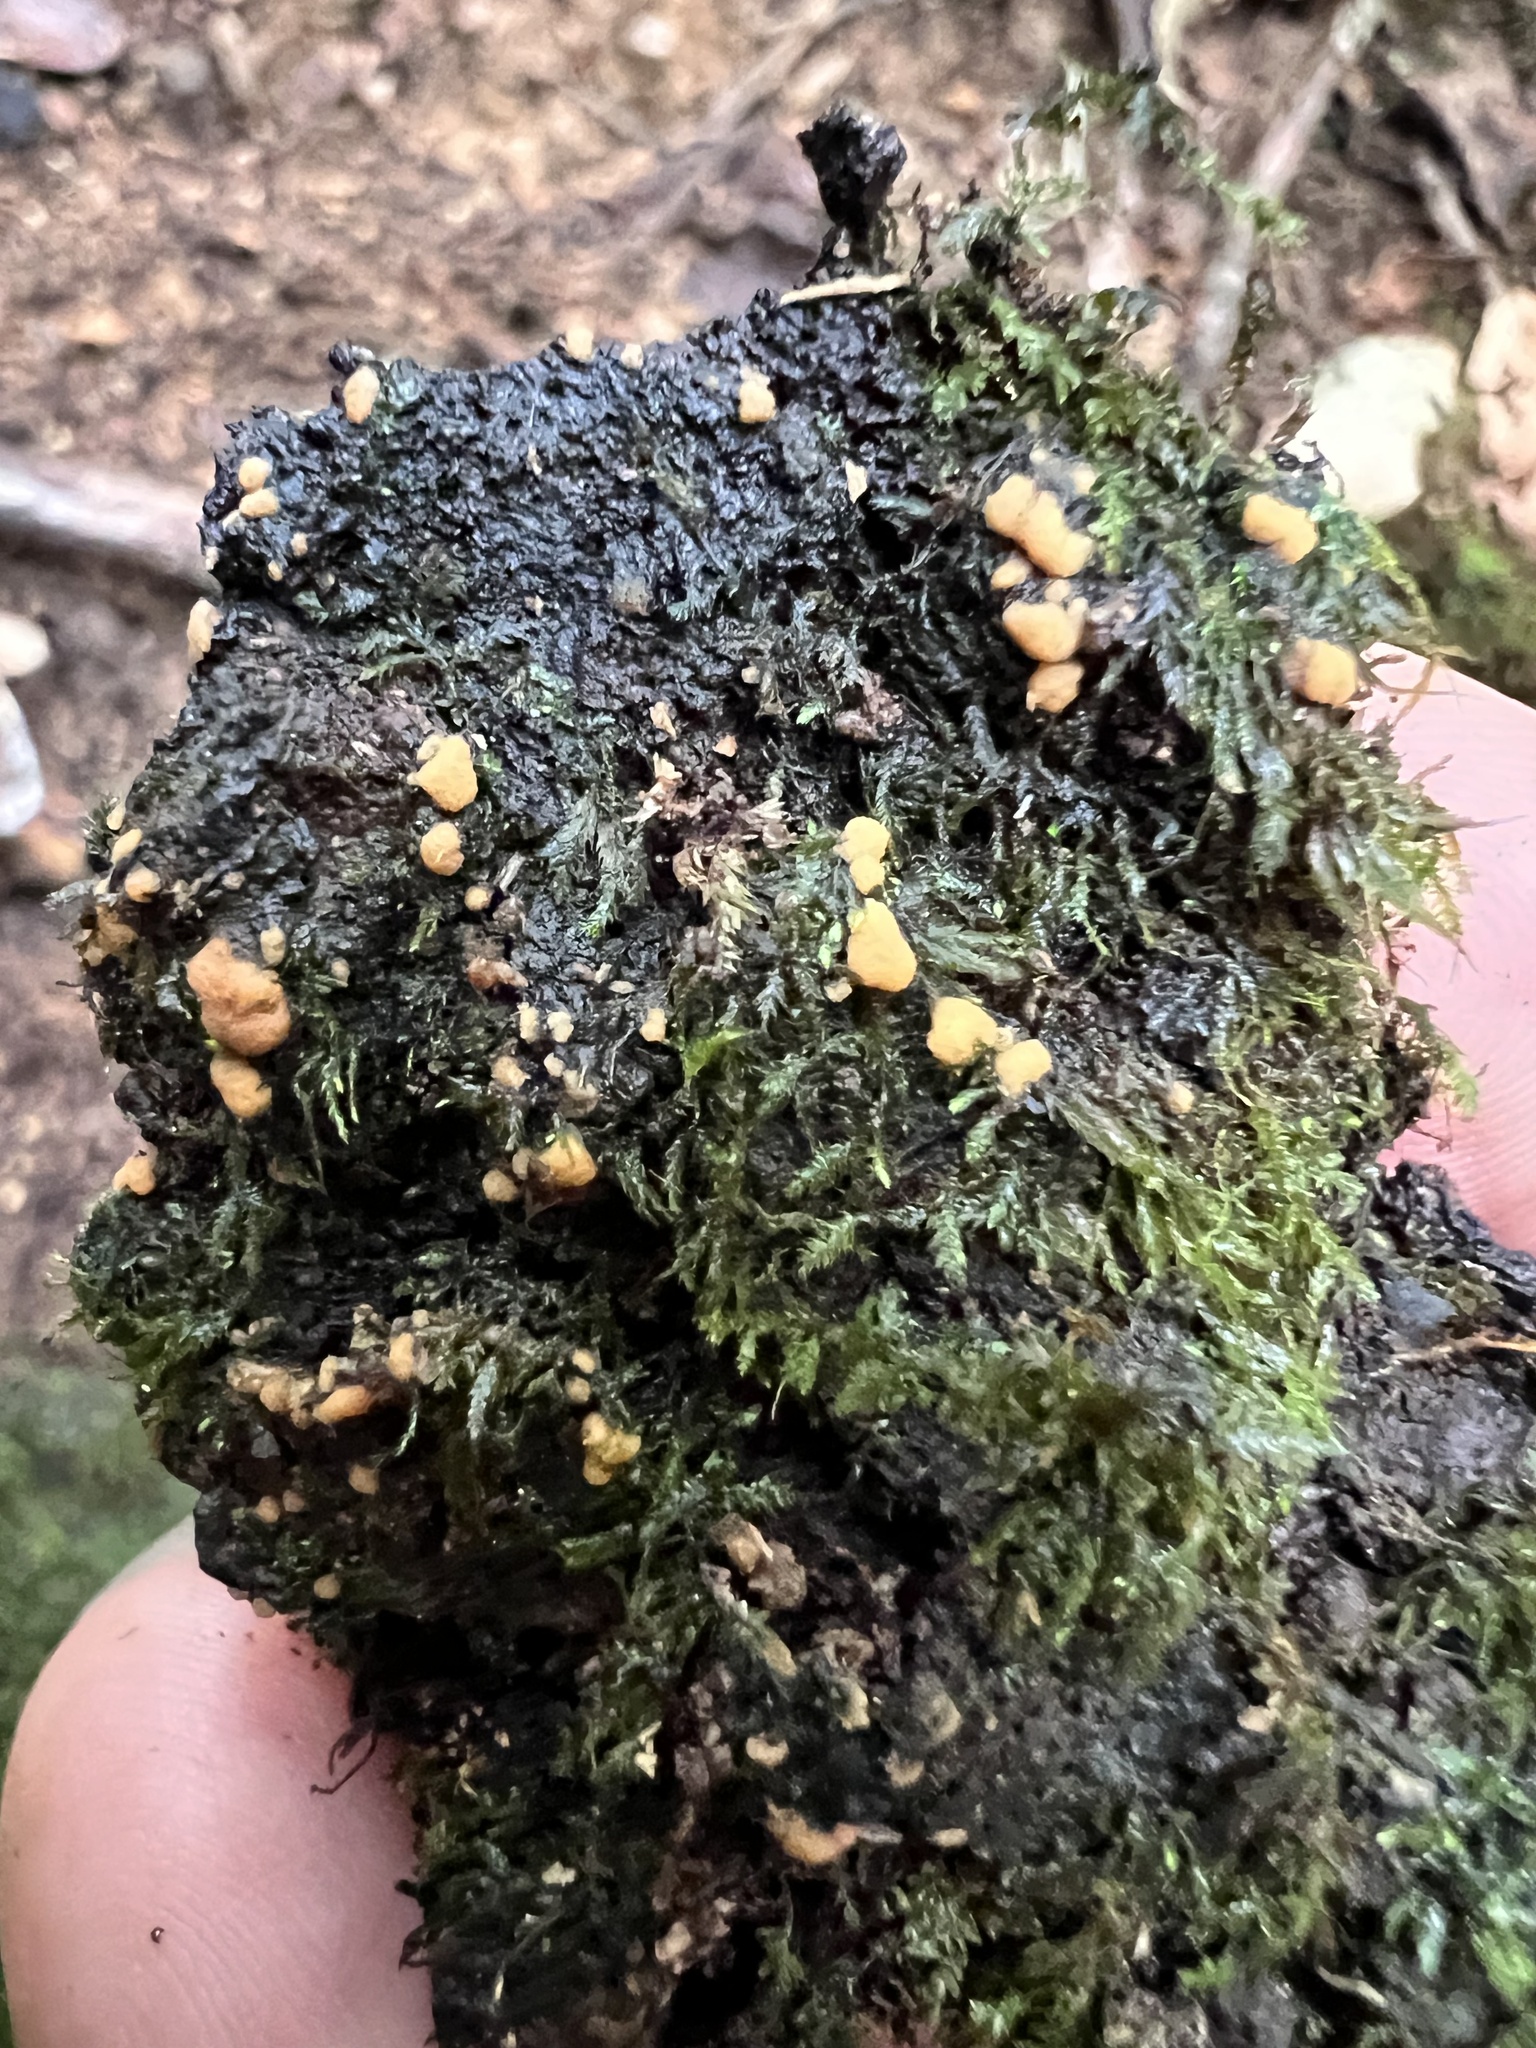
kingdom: Fungi
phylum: Ascomycota
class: Pezizomycetes
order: Pezizales
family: Pyronemataceae
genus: Sphaerosporium
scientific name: Sphaerosporium lignatile
